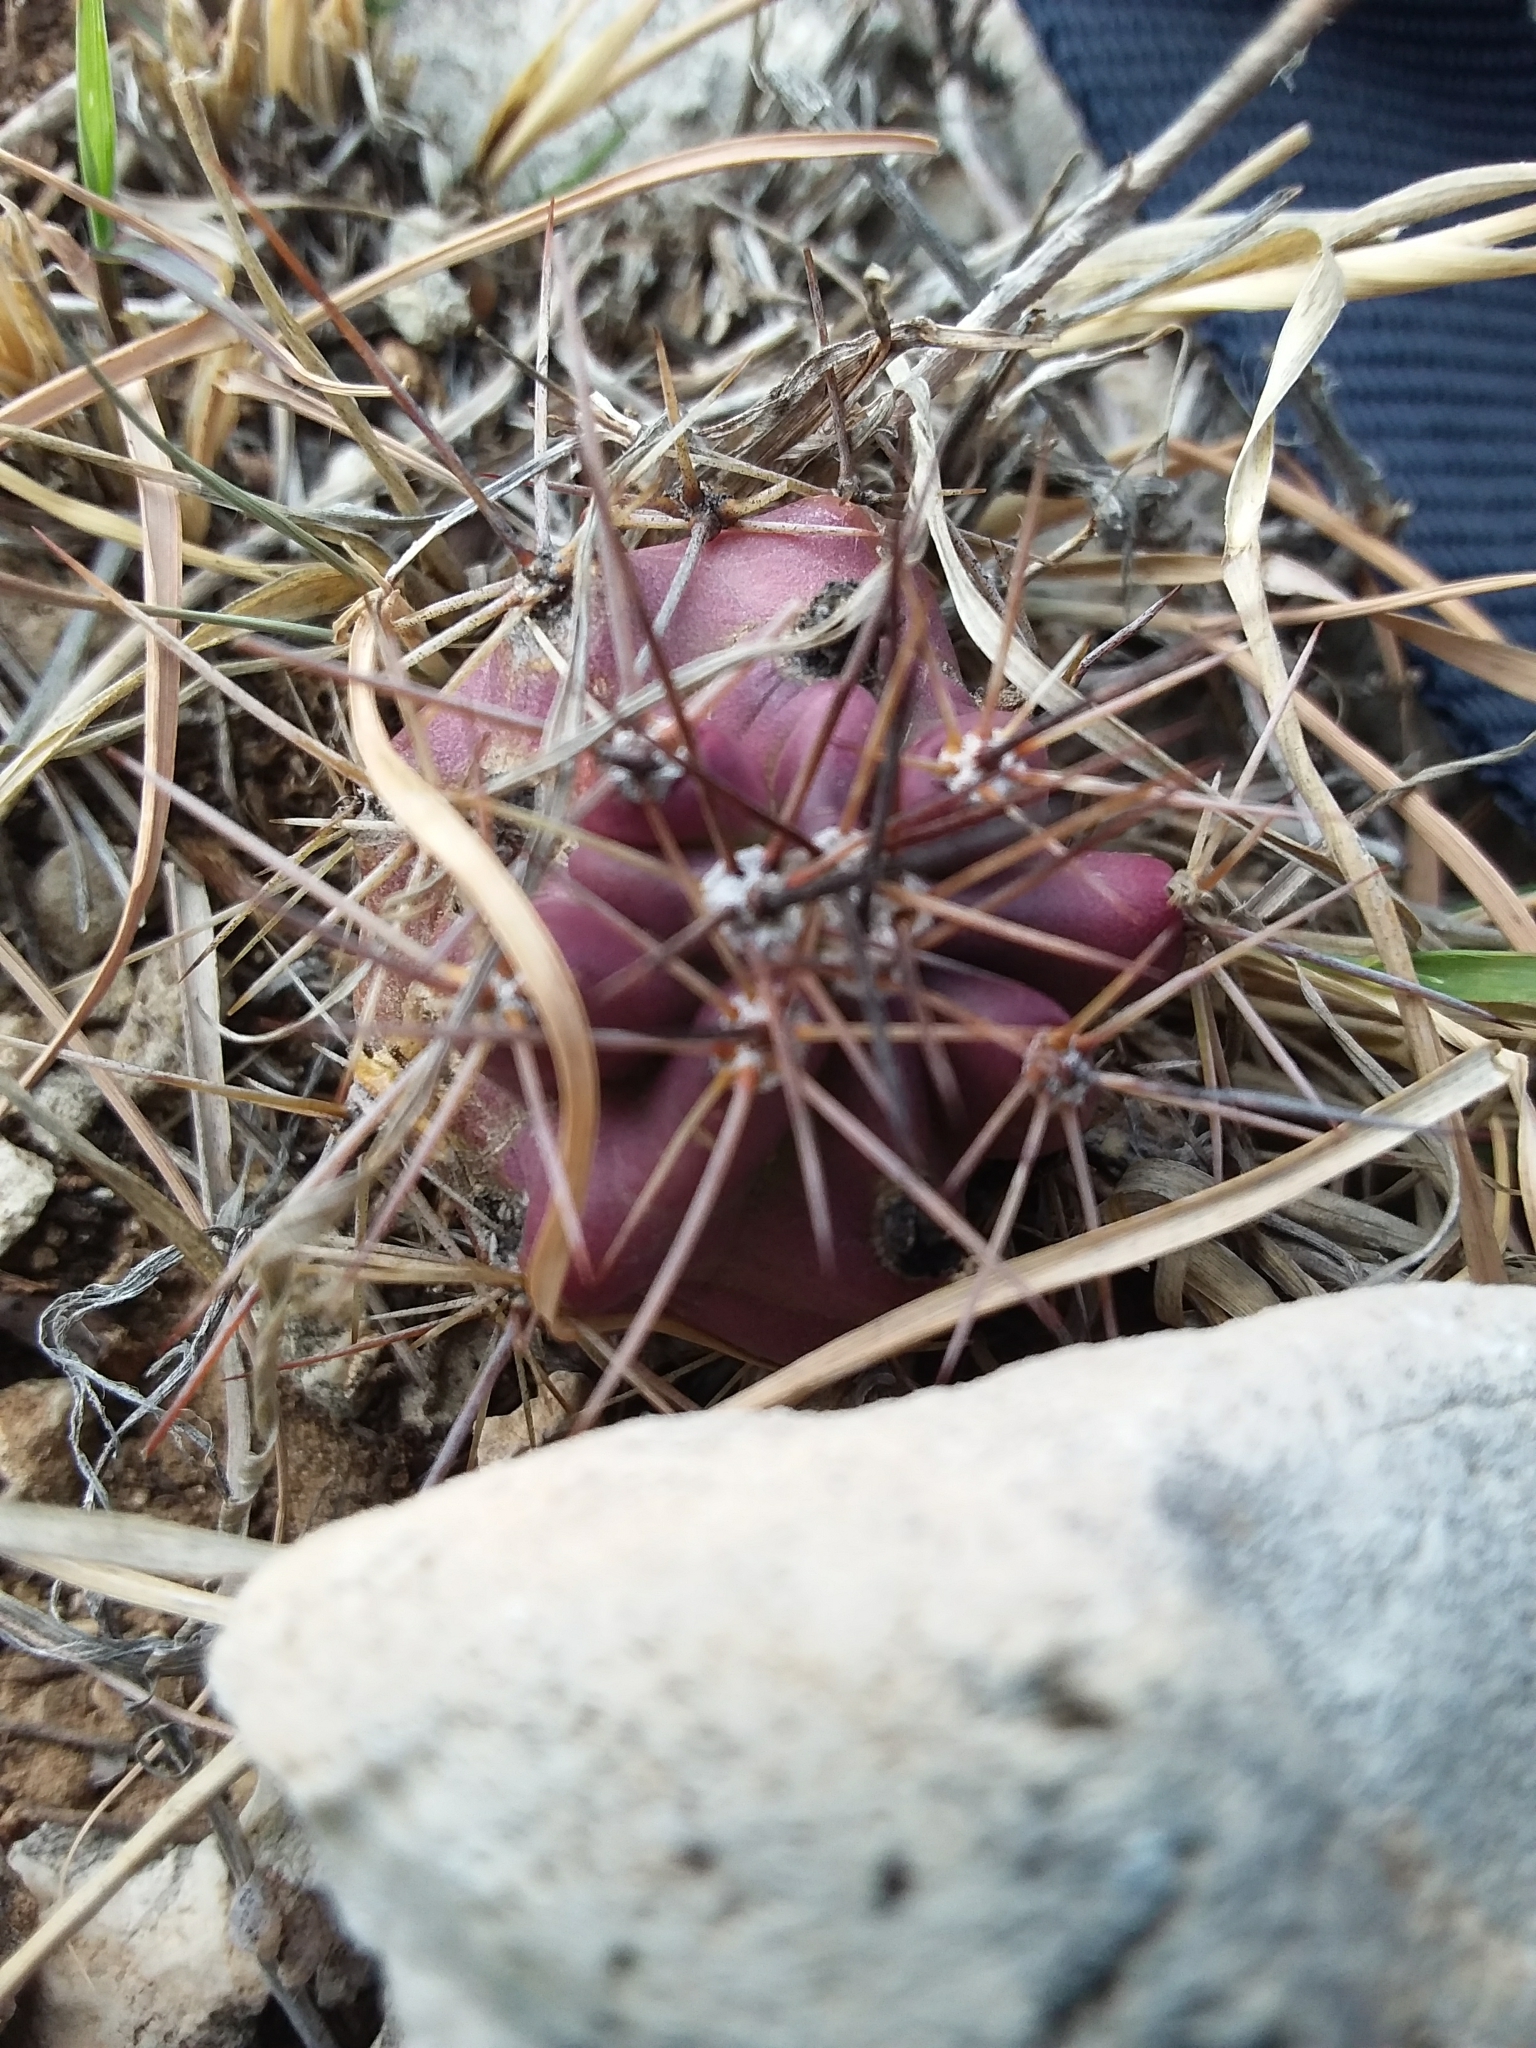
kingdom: Plantae
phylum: Tracheophyta
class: Magnoliopsida
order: Caryophyllales
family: Cactaceae
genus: Echinocereus
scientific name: Echinocereus coccineus
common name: Scarlet hedgehog cactus
